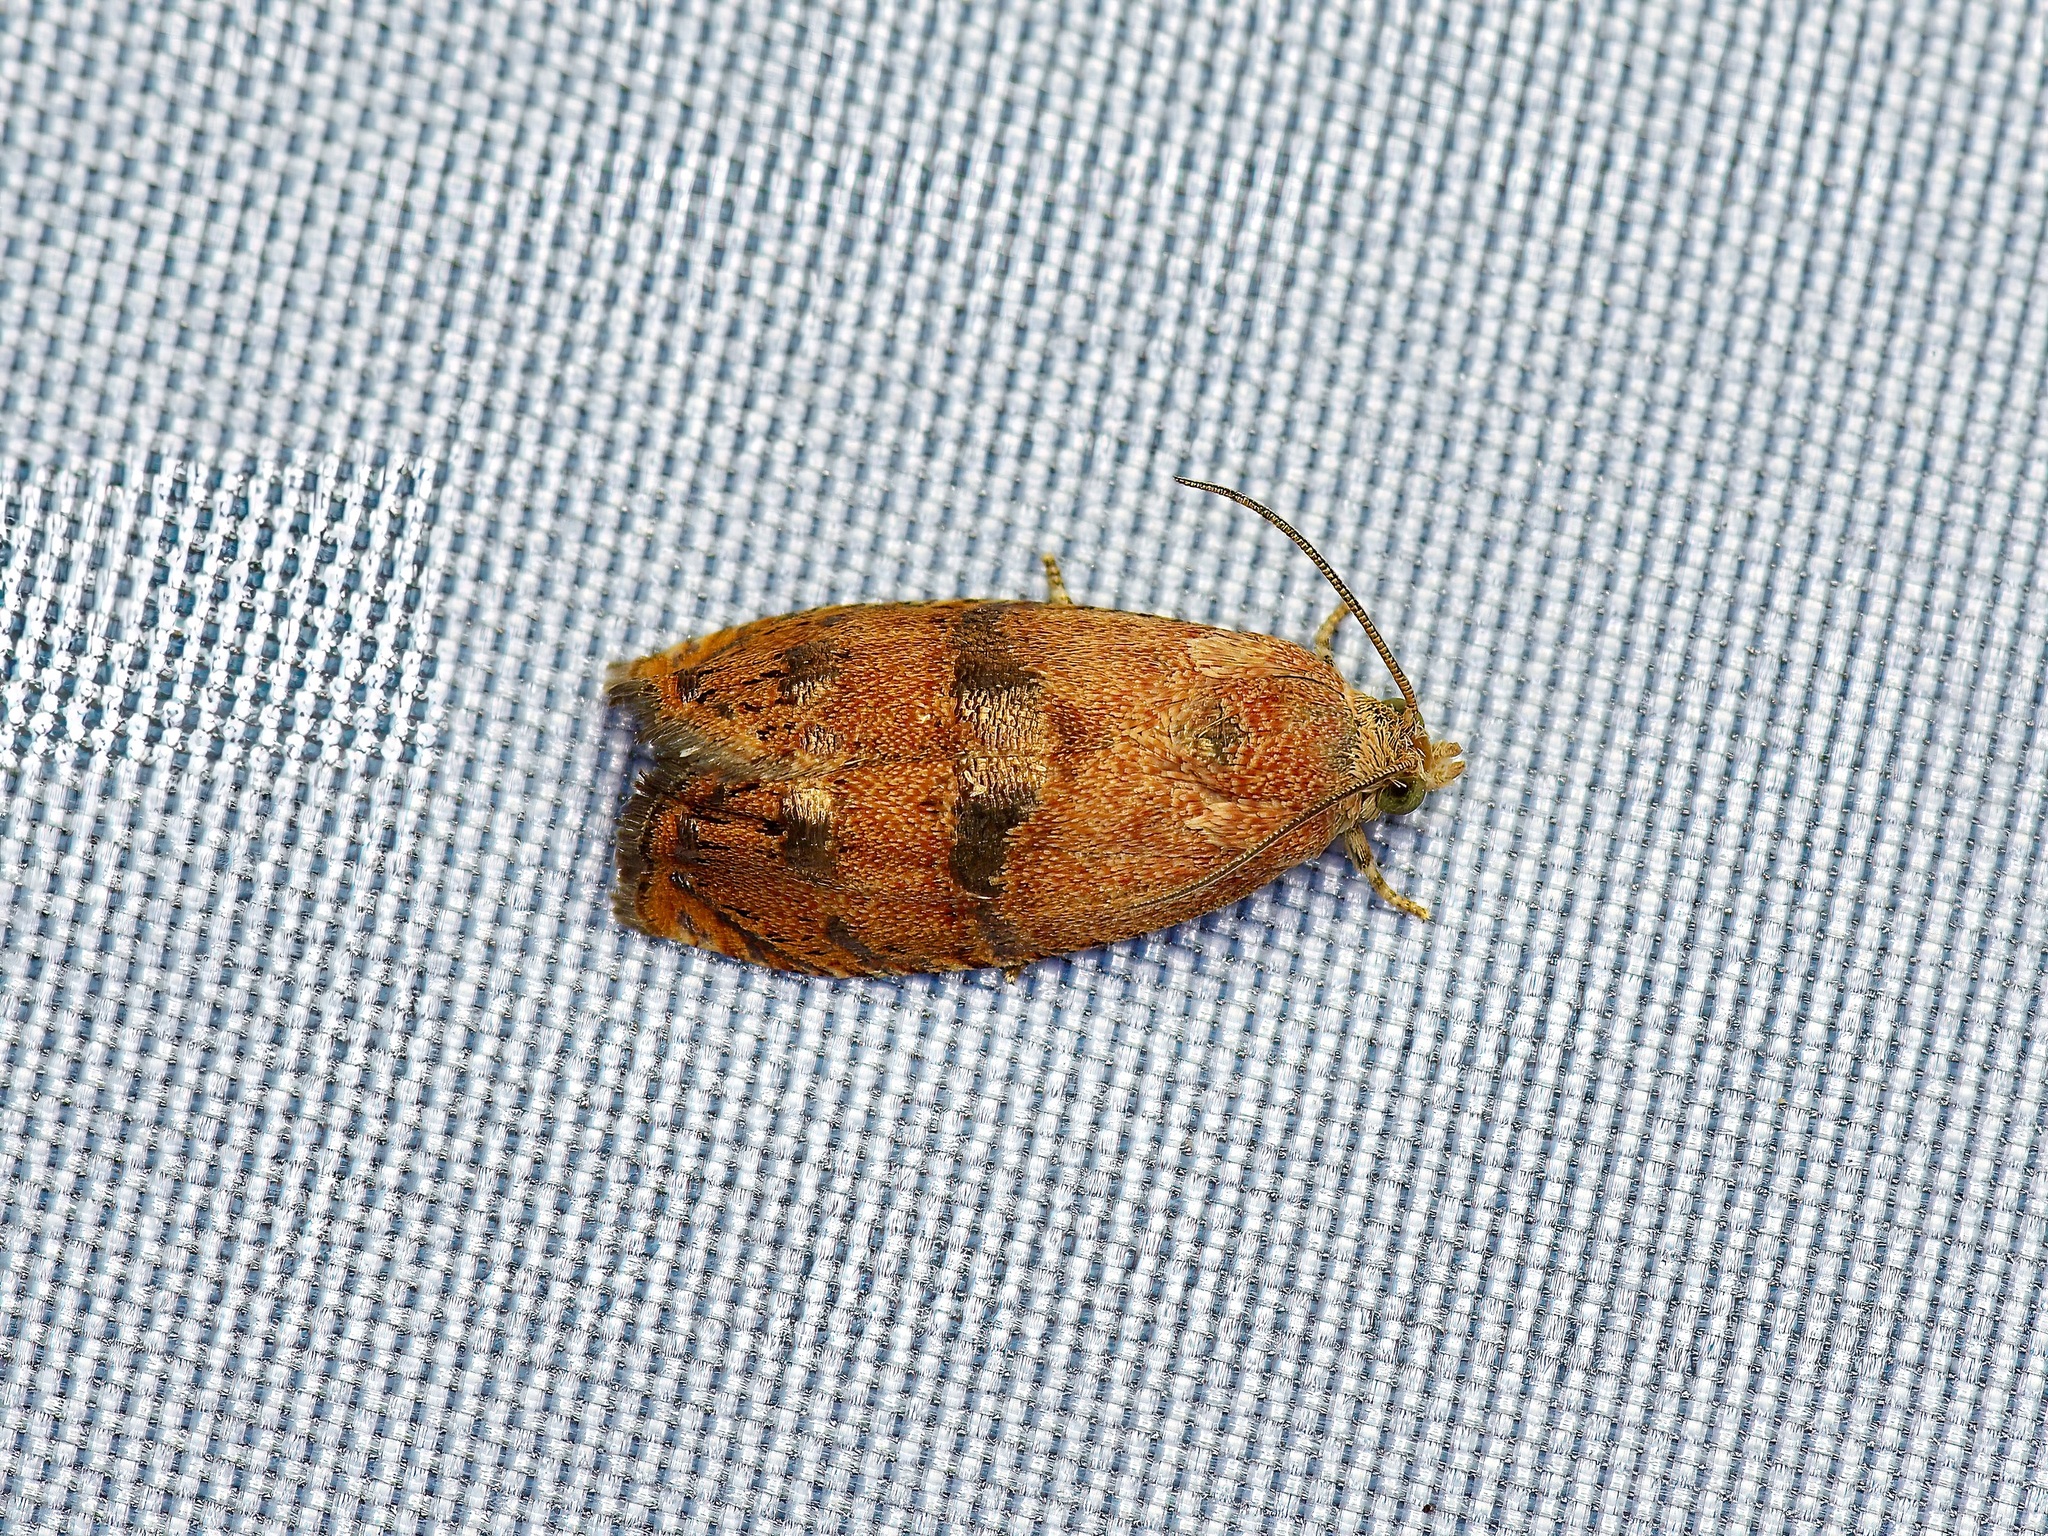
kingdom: Animalia
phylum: Arthropoda
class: Insecta
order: Lepidoptera
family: Tortricidae
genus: Cydia
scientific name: Cydia latiferreana
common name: Filbertworm moth
